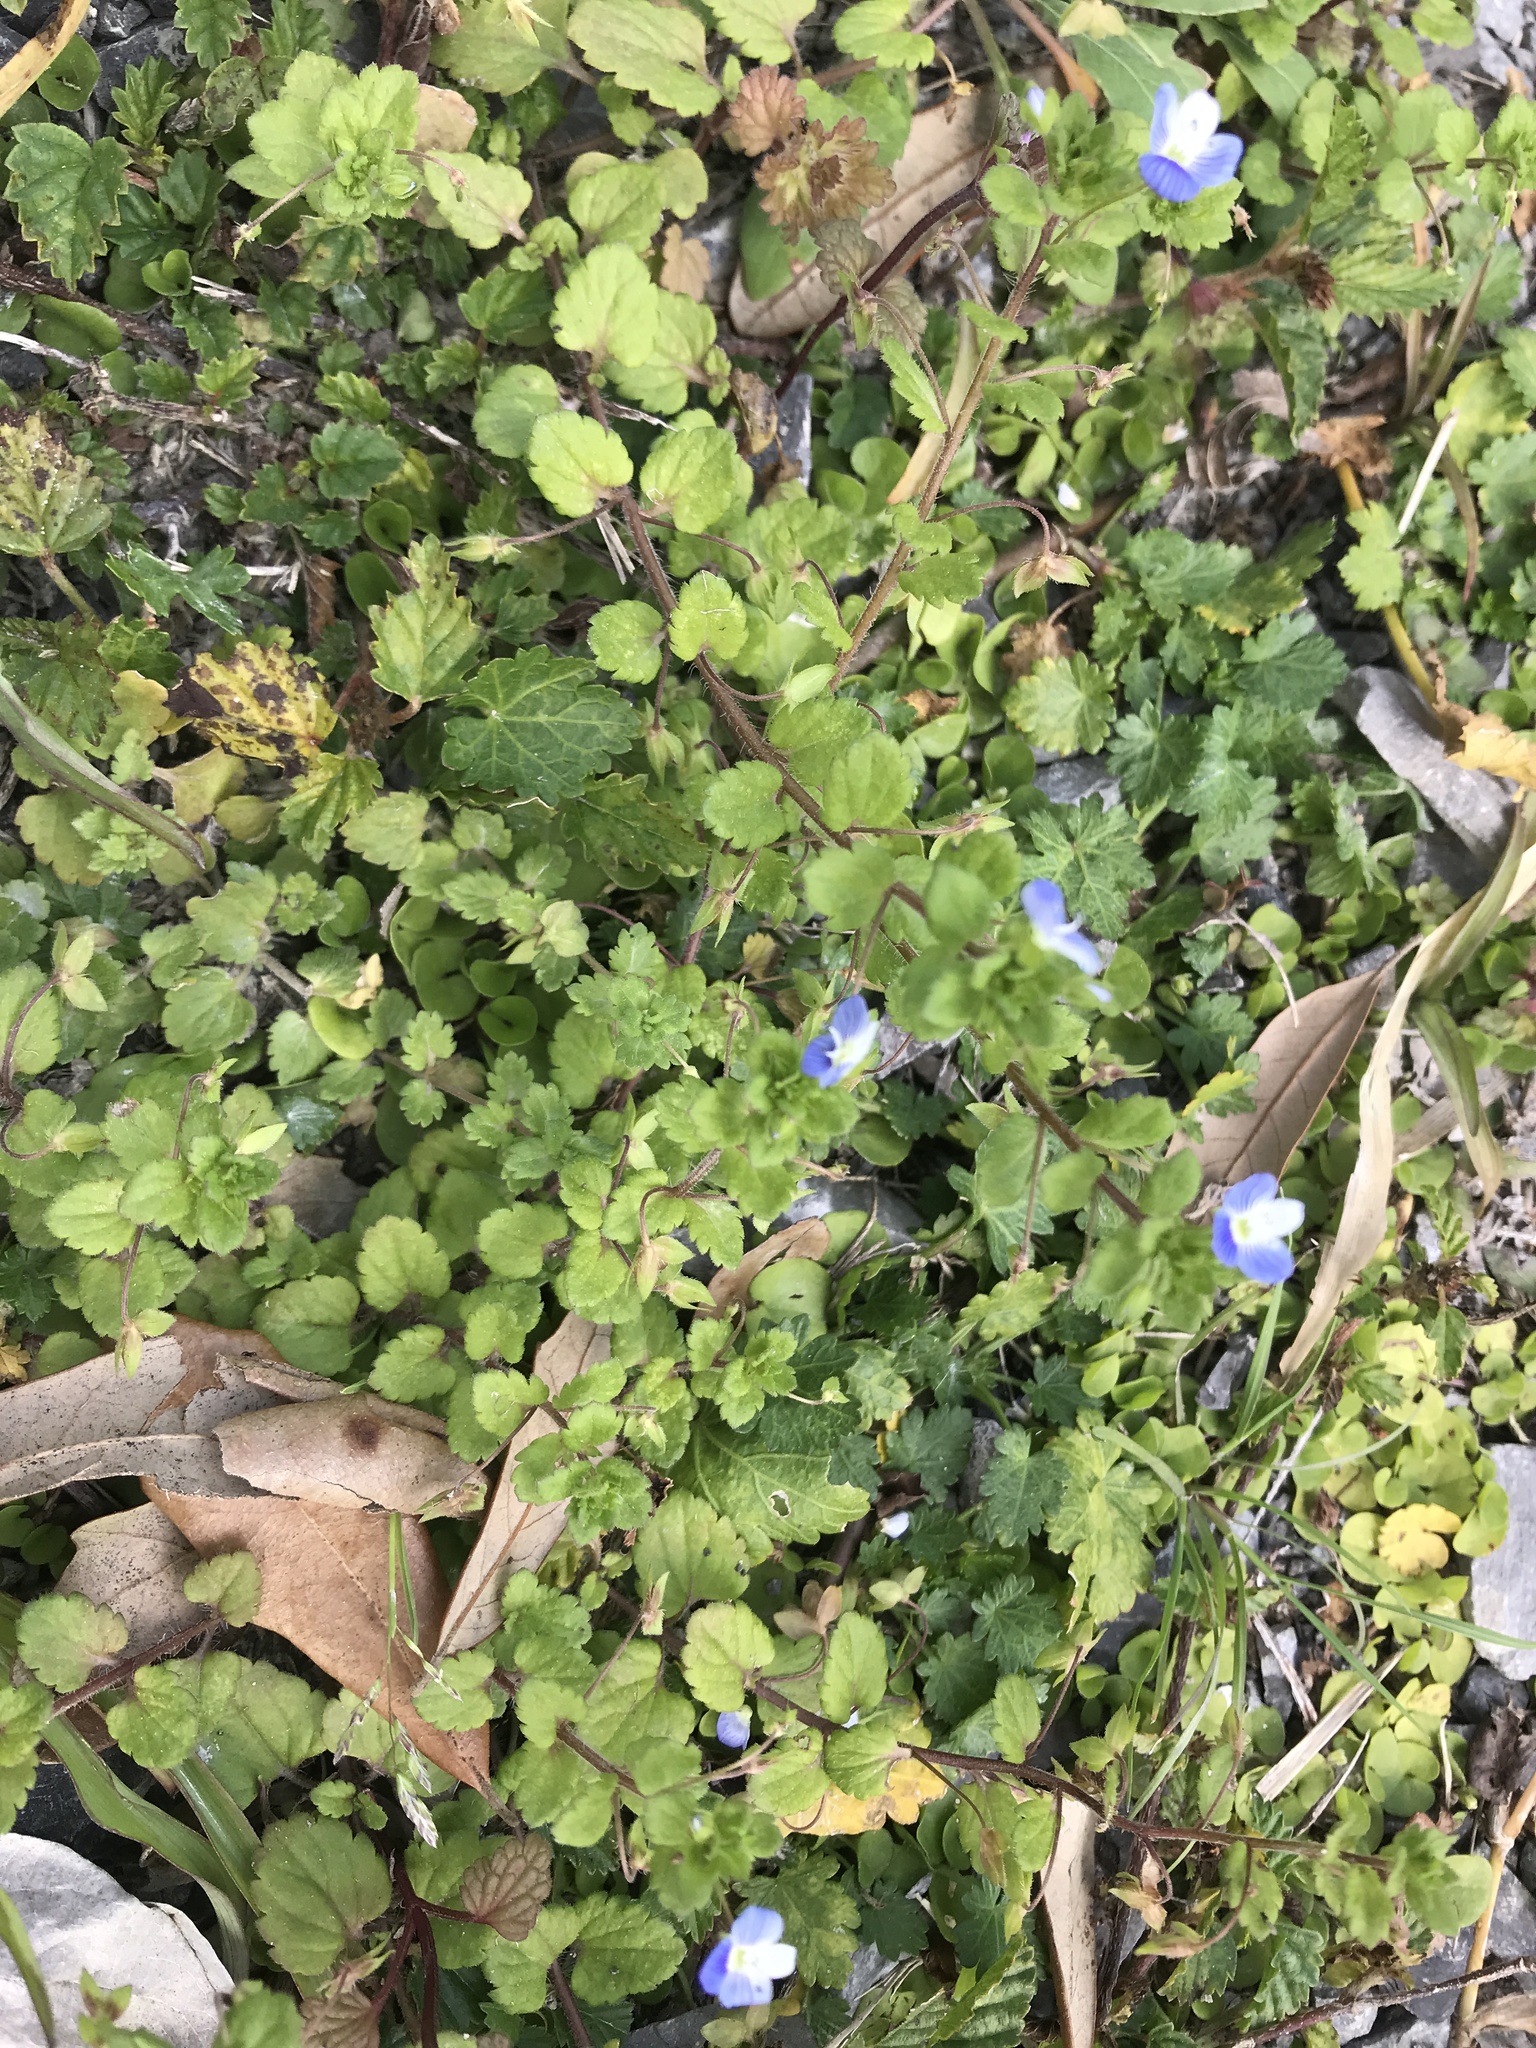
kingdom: Plantae
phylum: Tracheophyta
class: Magnoliopsida
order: Lamiales
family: Plantaginaceae
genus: Veronica
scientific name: Veronica persica
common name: Common field-speedwell
